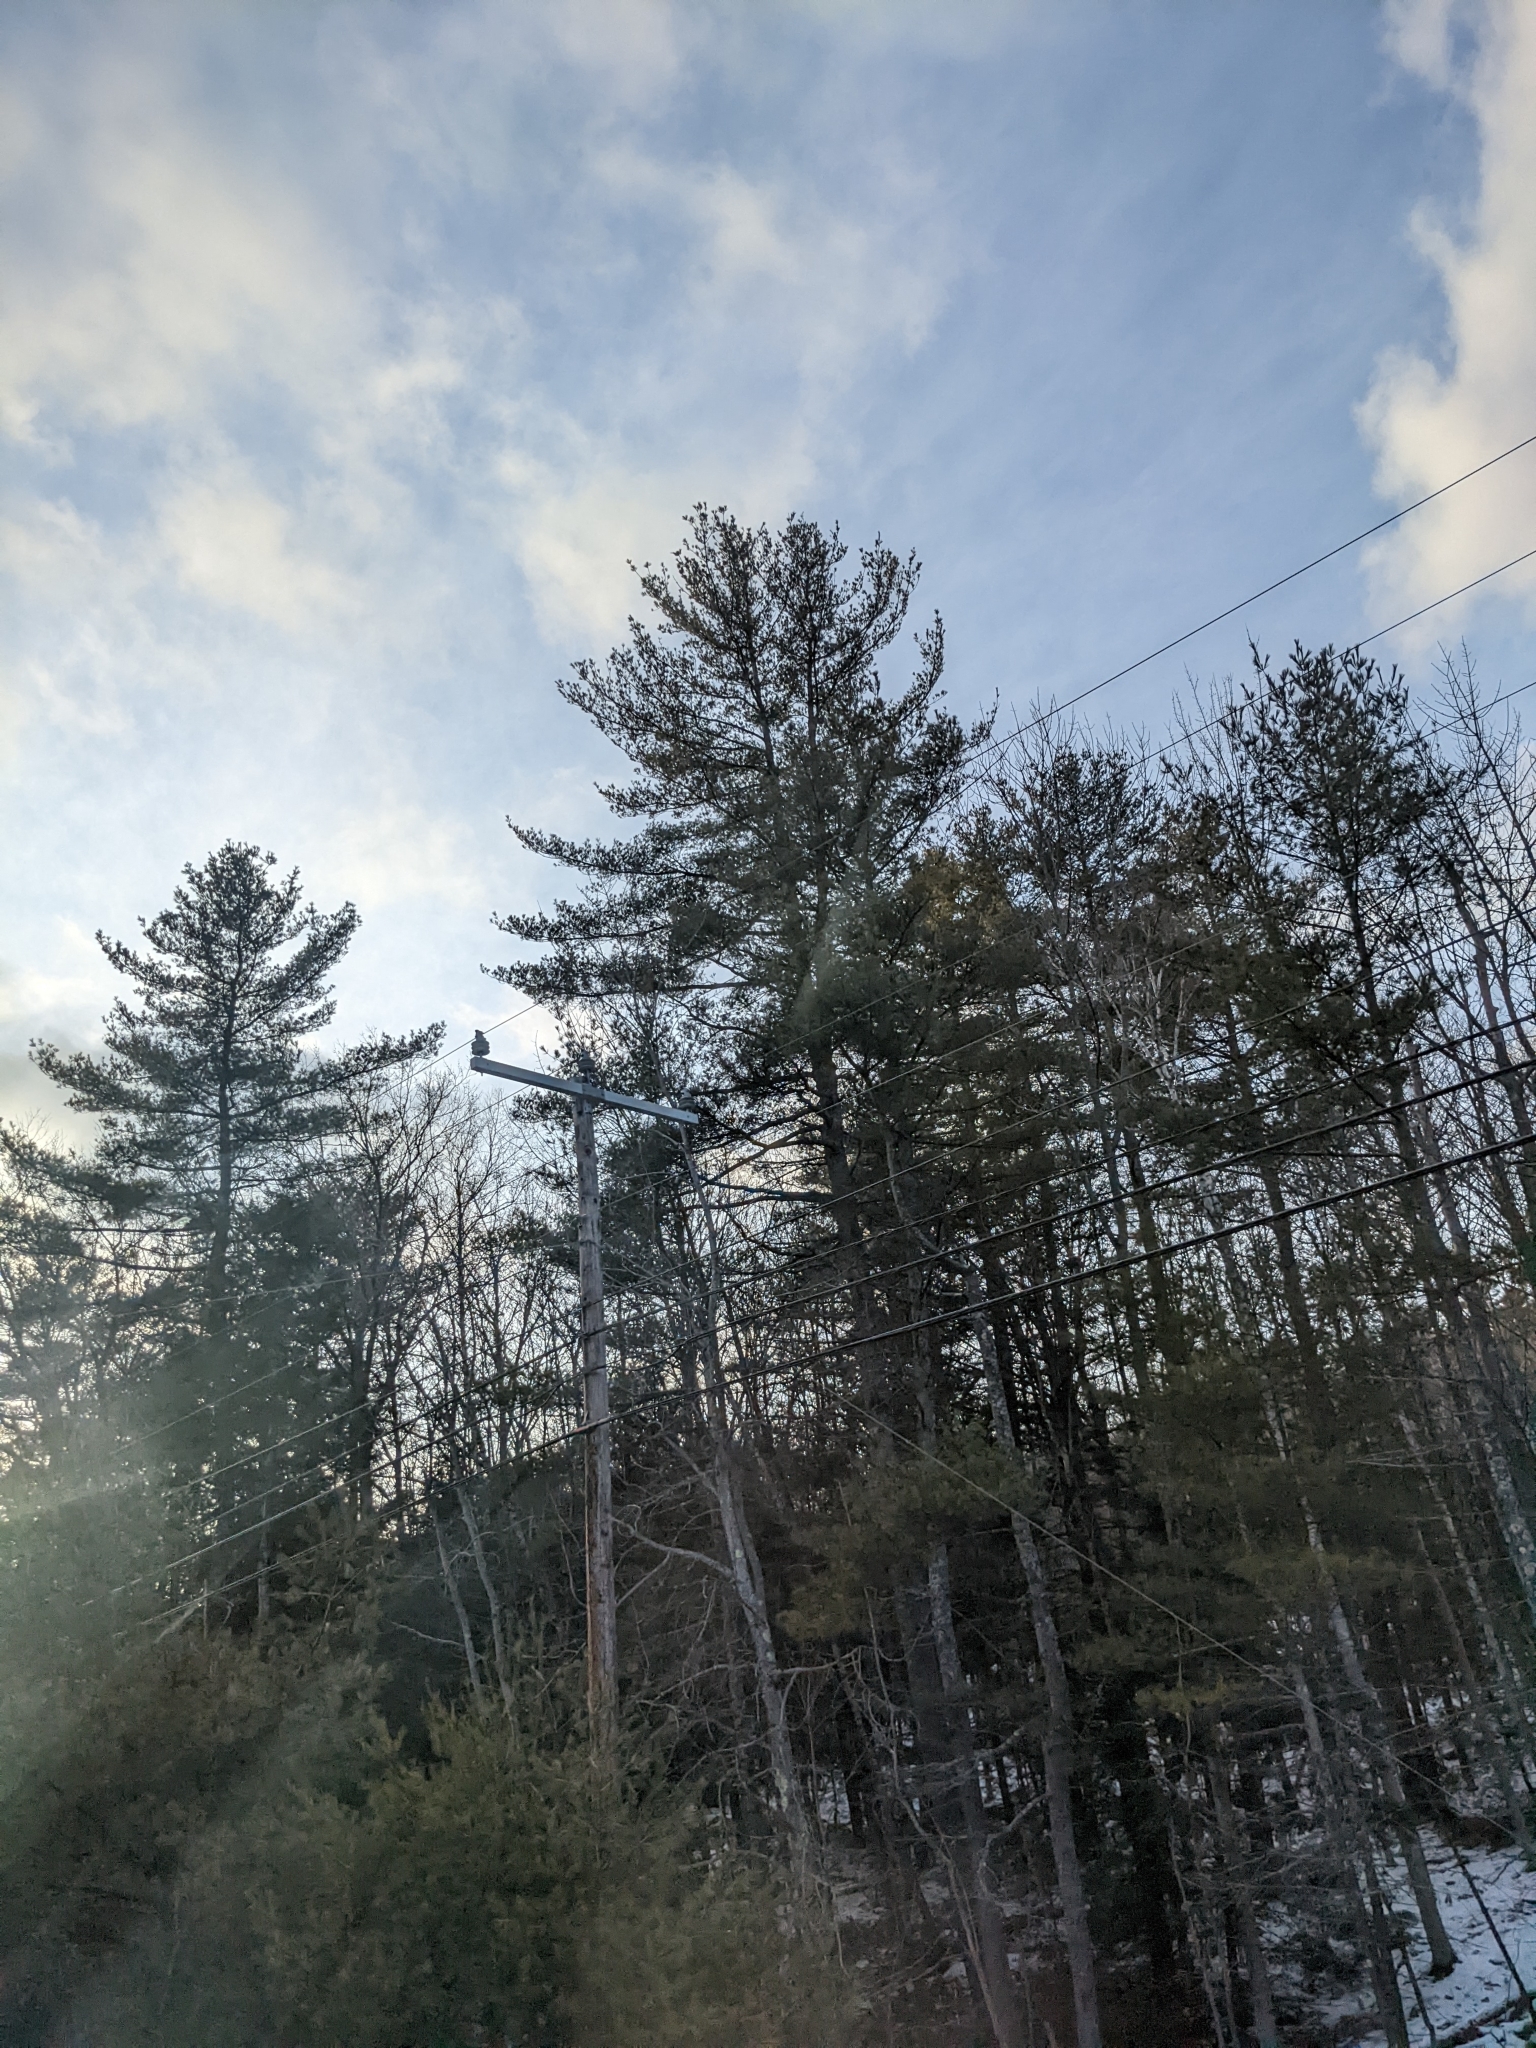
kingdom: Plantae
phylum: Tracheophyta
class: Pinopsida
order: Pinales
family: Pinaceae
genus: Pinus
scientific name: Pinus strobus
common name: Weymouth pine
